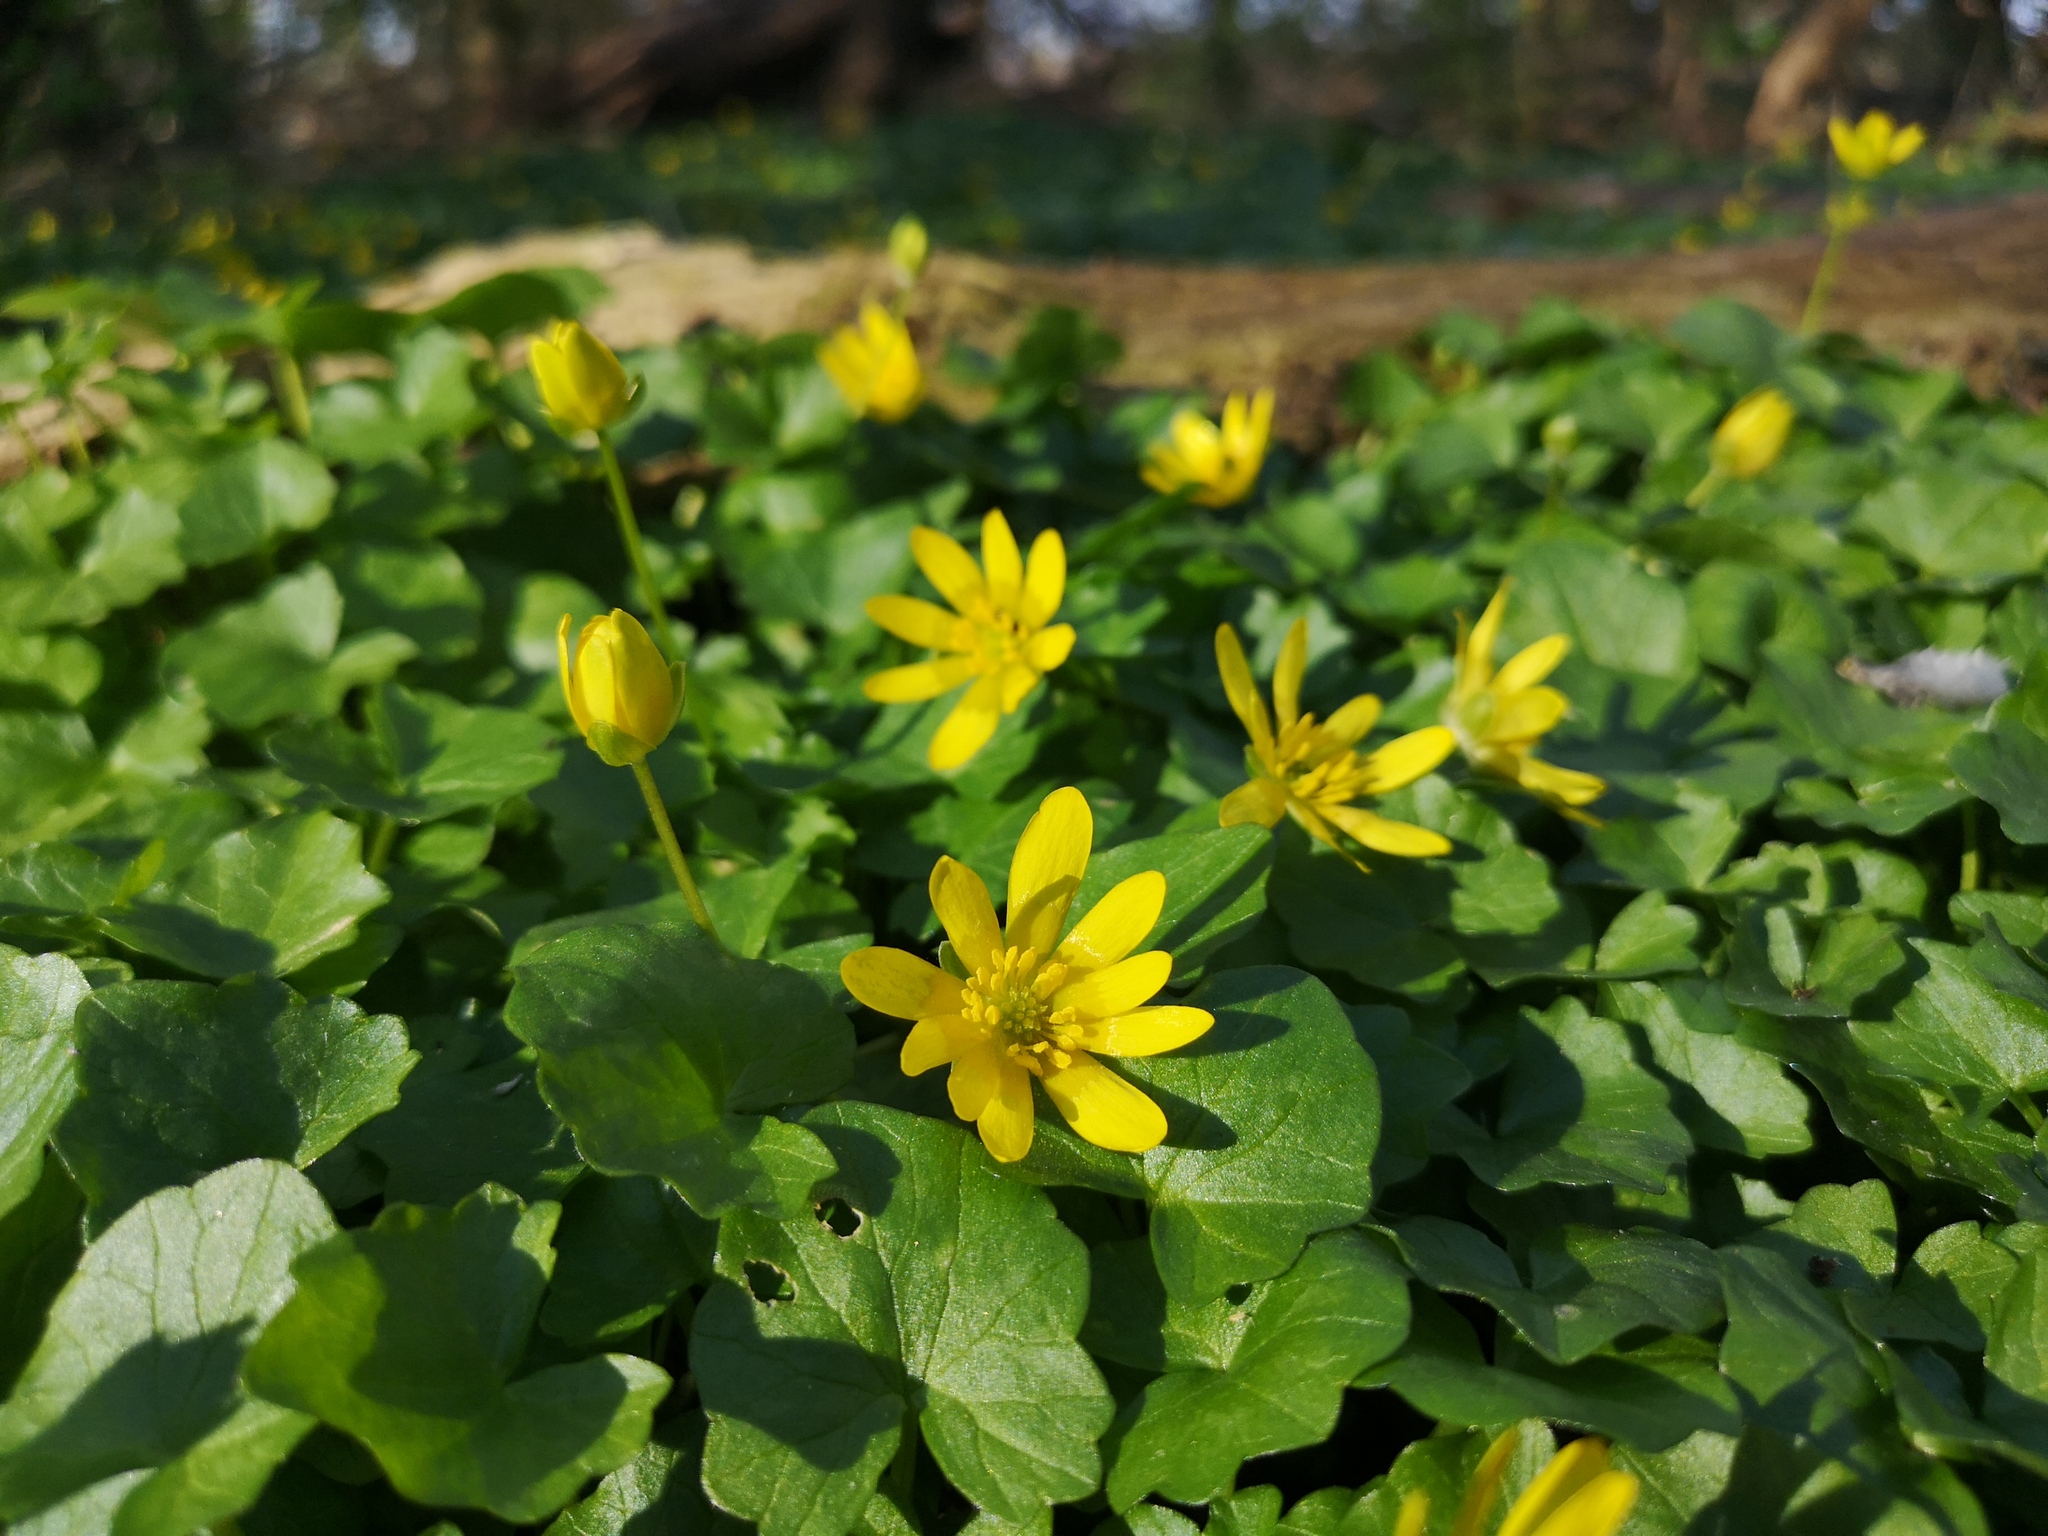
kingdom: Plantae
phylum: Tracheophyta
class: Magnoliopsida
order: Ranunculales
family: Ranunculaceae
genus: Ficaria
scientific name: Ficaria verna
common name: Lesser celandine
